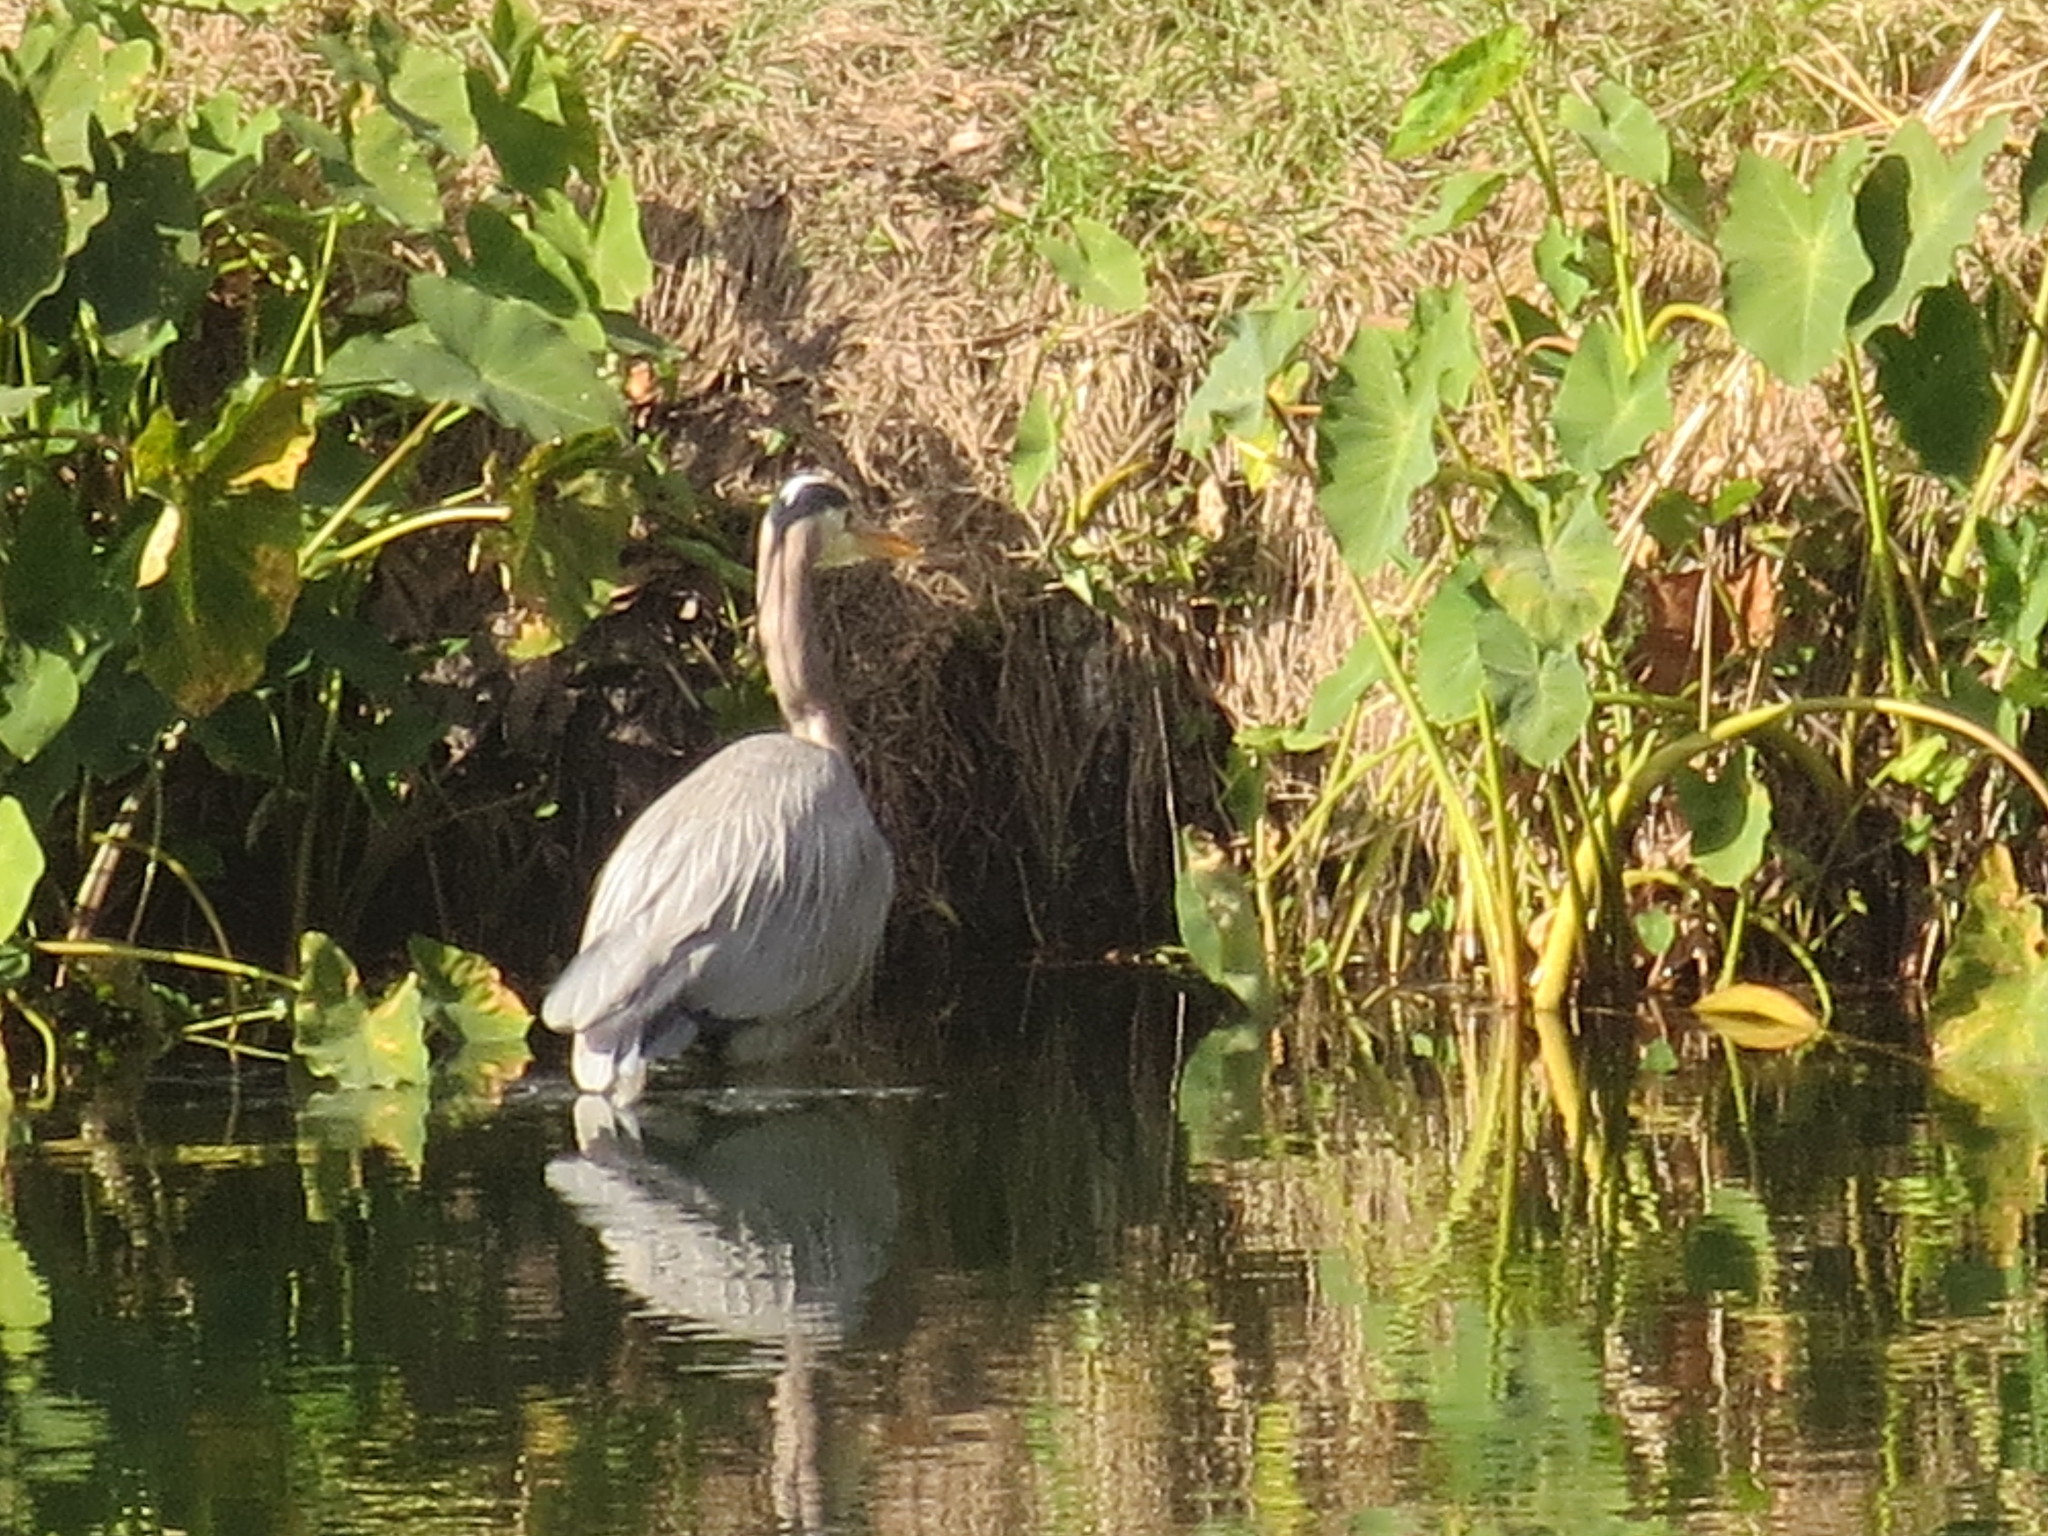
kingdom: Animalia
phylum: Chordata
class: Aves
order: Pelecaniformes
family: Ardeidae
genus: Ardea
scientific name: Ardea herodias
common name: Great blue heron
